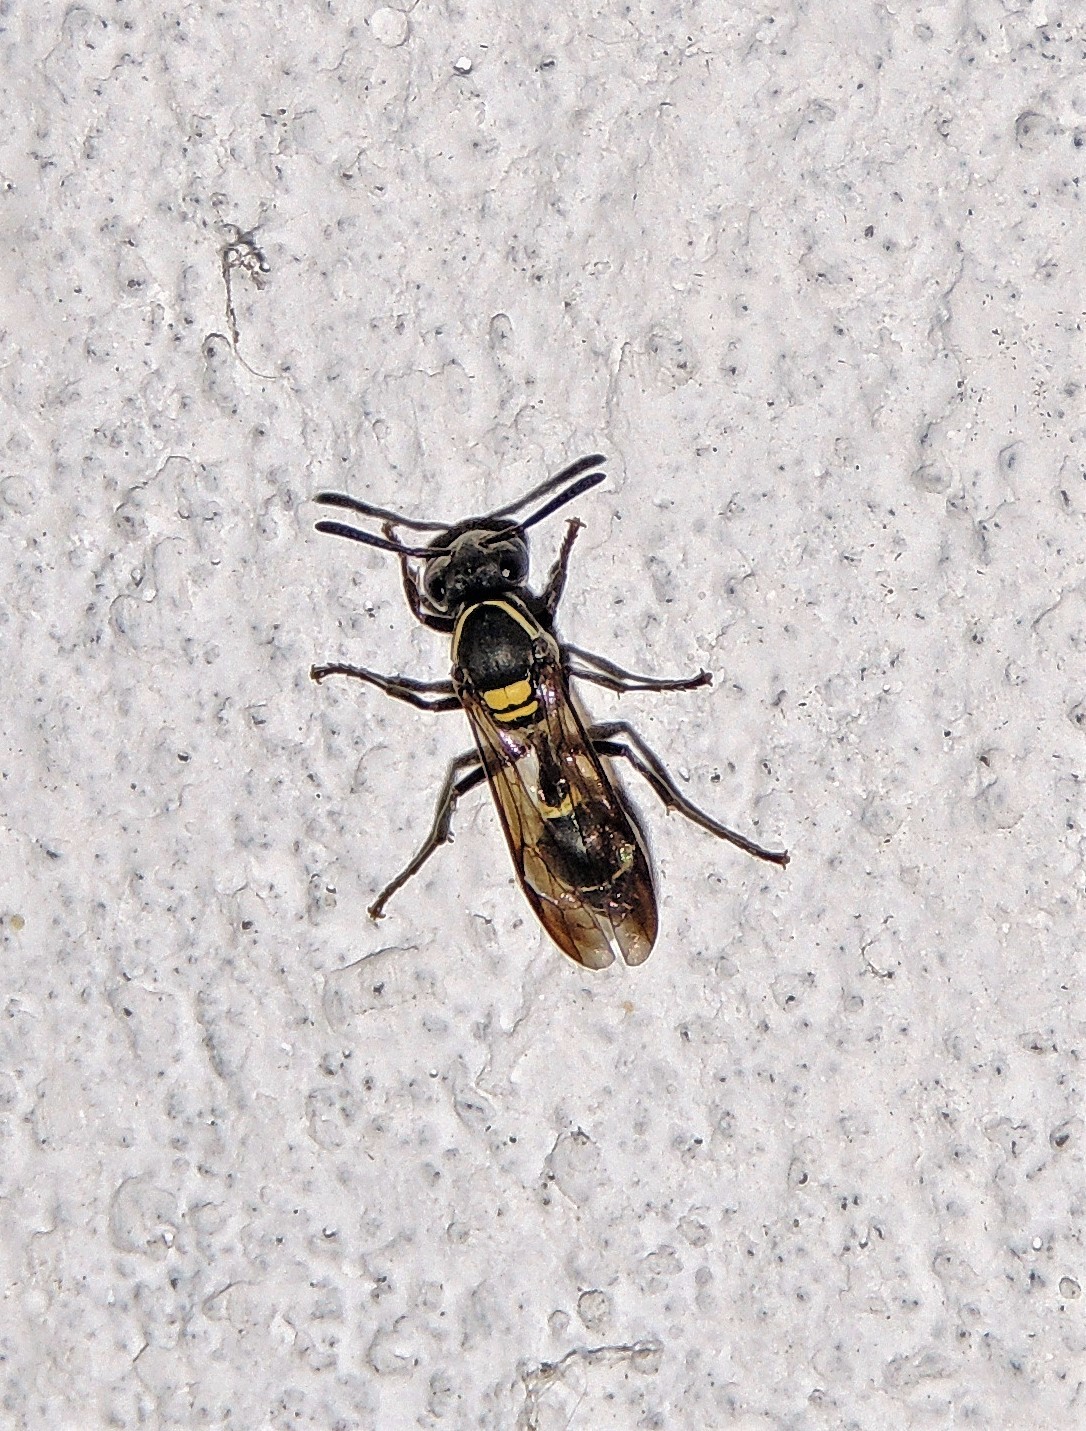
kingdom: Animalia
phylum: Arthropoda
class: Insecta
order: Hymenoptera
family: Eumenidae
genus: Polybia
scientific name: Polybia occidentalis
